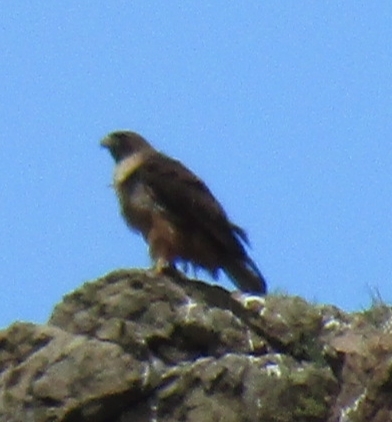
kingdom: Animalia
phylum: Chordata
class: Aves
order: Accipitriformes
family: Accipitridae
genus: Buteo
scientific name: Buteo jamaicensis
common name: Red-tailed hawk
